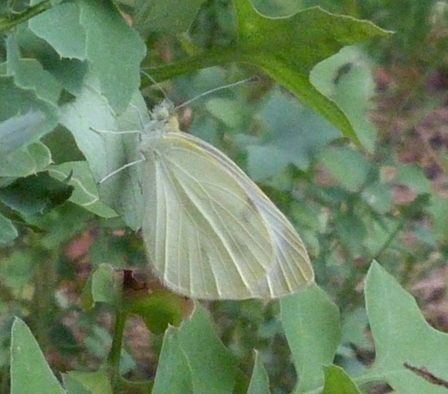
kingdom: Animalia
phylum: Arthropoda
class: Insecta
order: Lepidoptera
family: Pieridae
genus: Pieris
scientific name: Pieris rapae
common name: Small white
